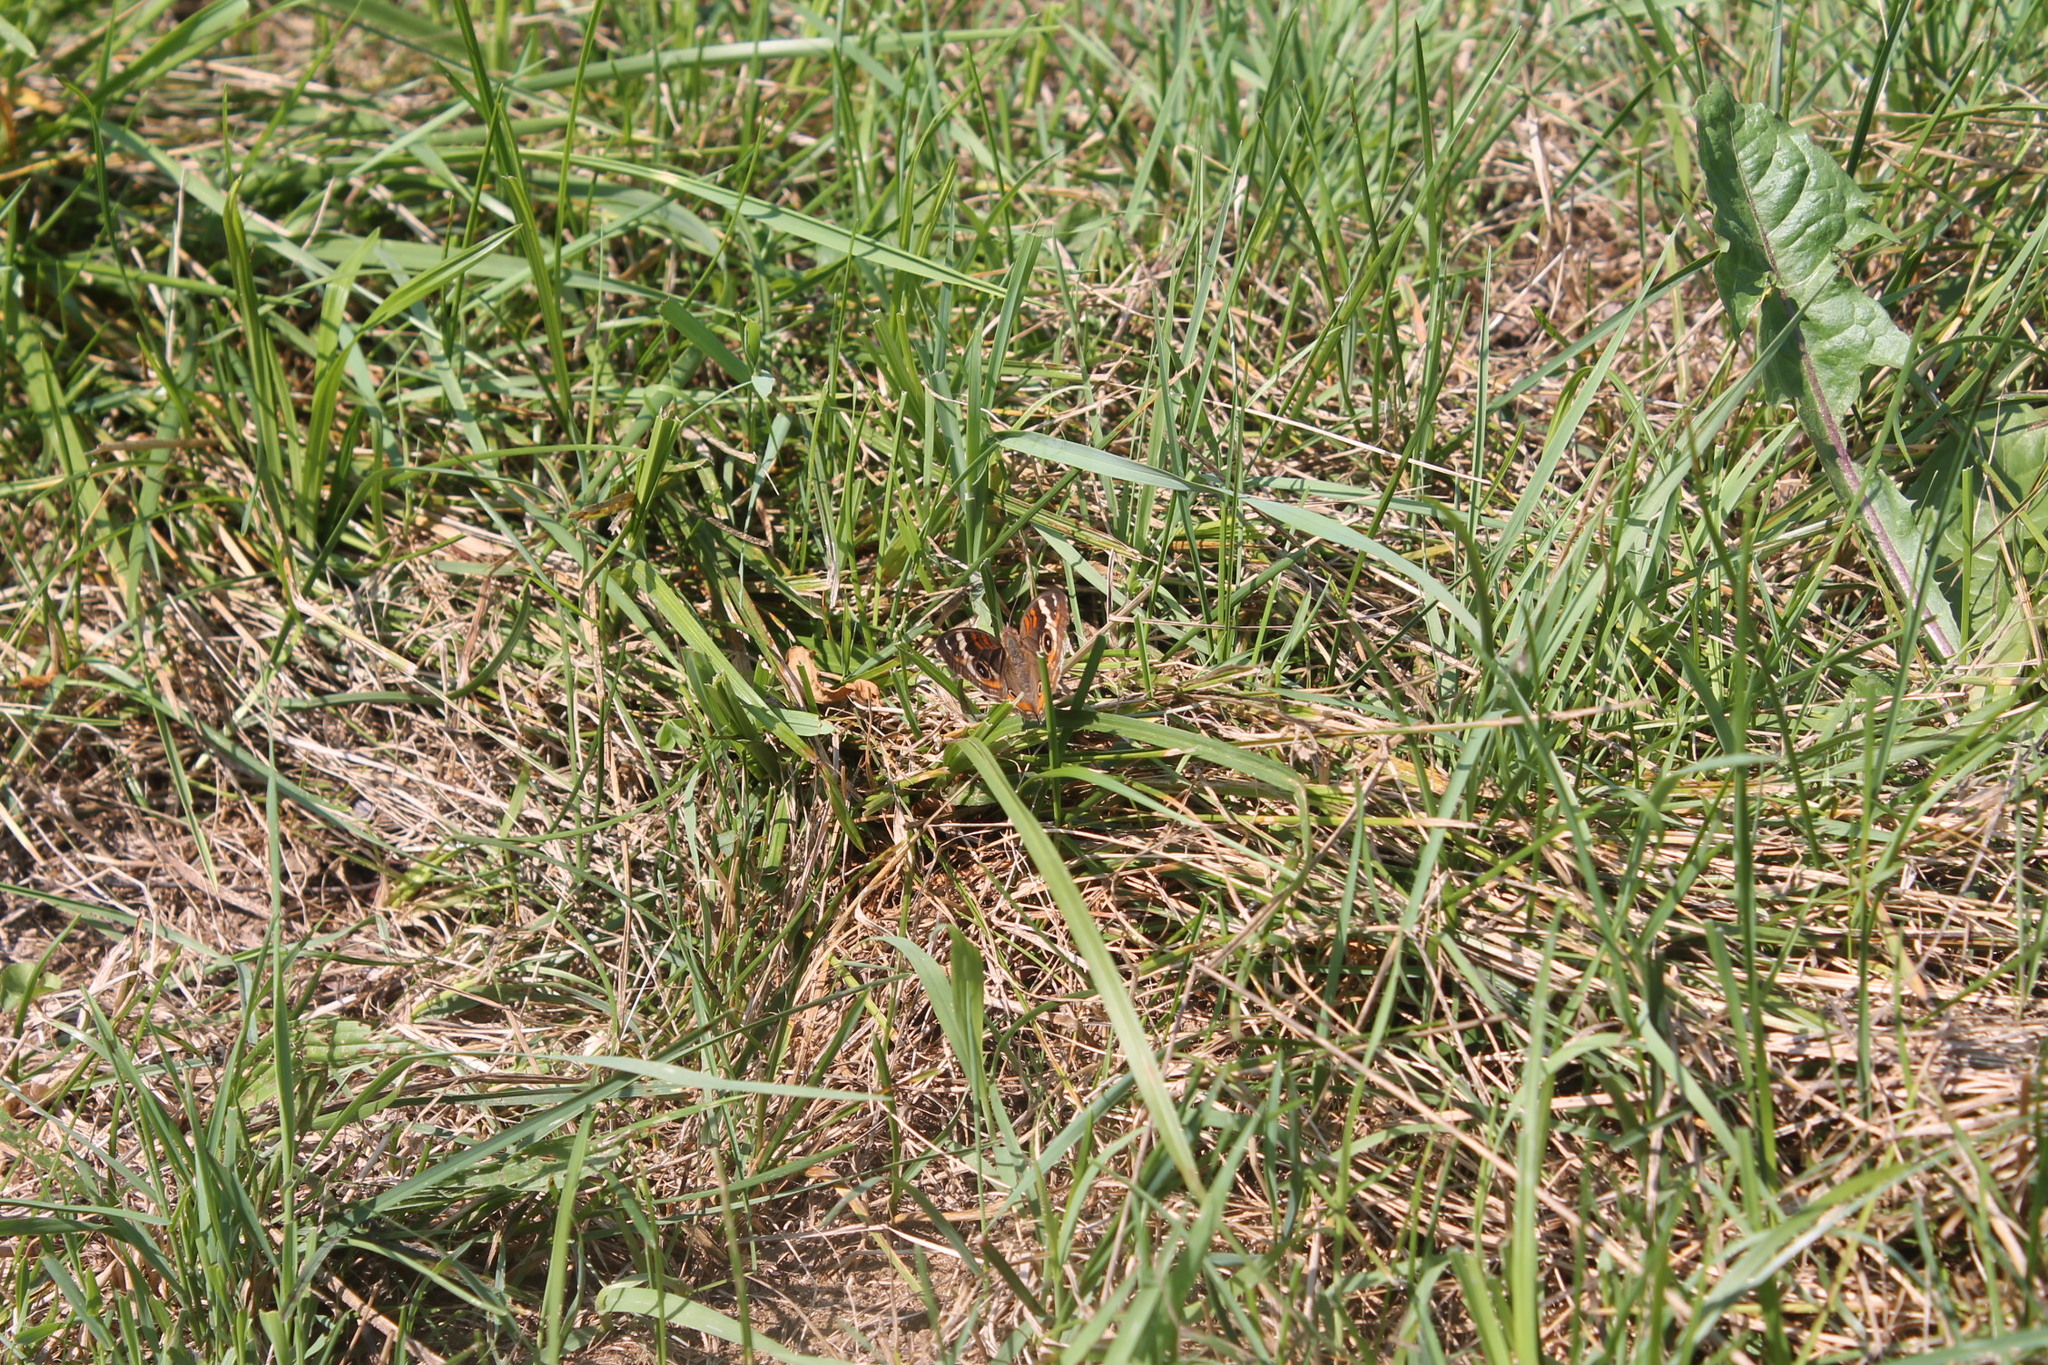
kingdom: Animalia
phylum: Arthropoda
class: Insecta
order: Lepidoptera
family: Nymphalidae
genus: Junonia
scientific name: Junonia coenia
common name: Common buckeye
